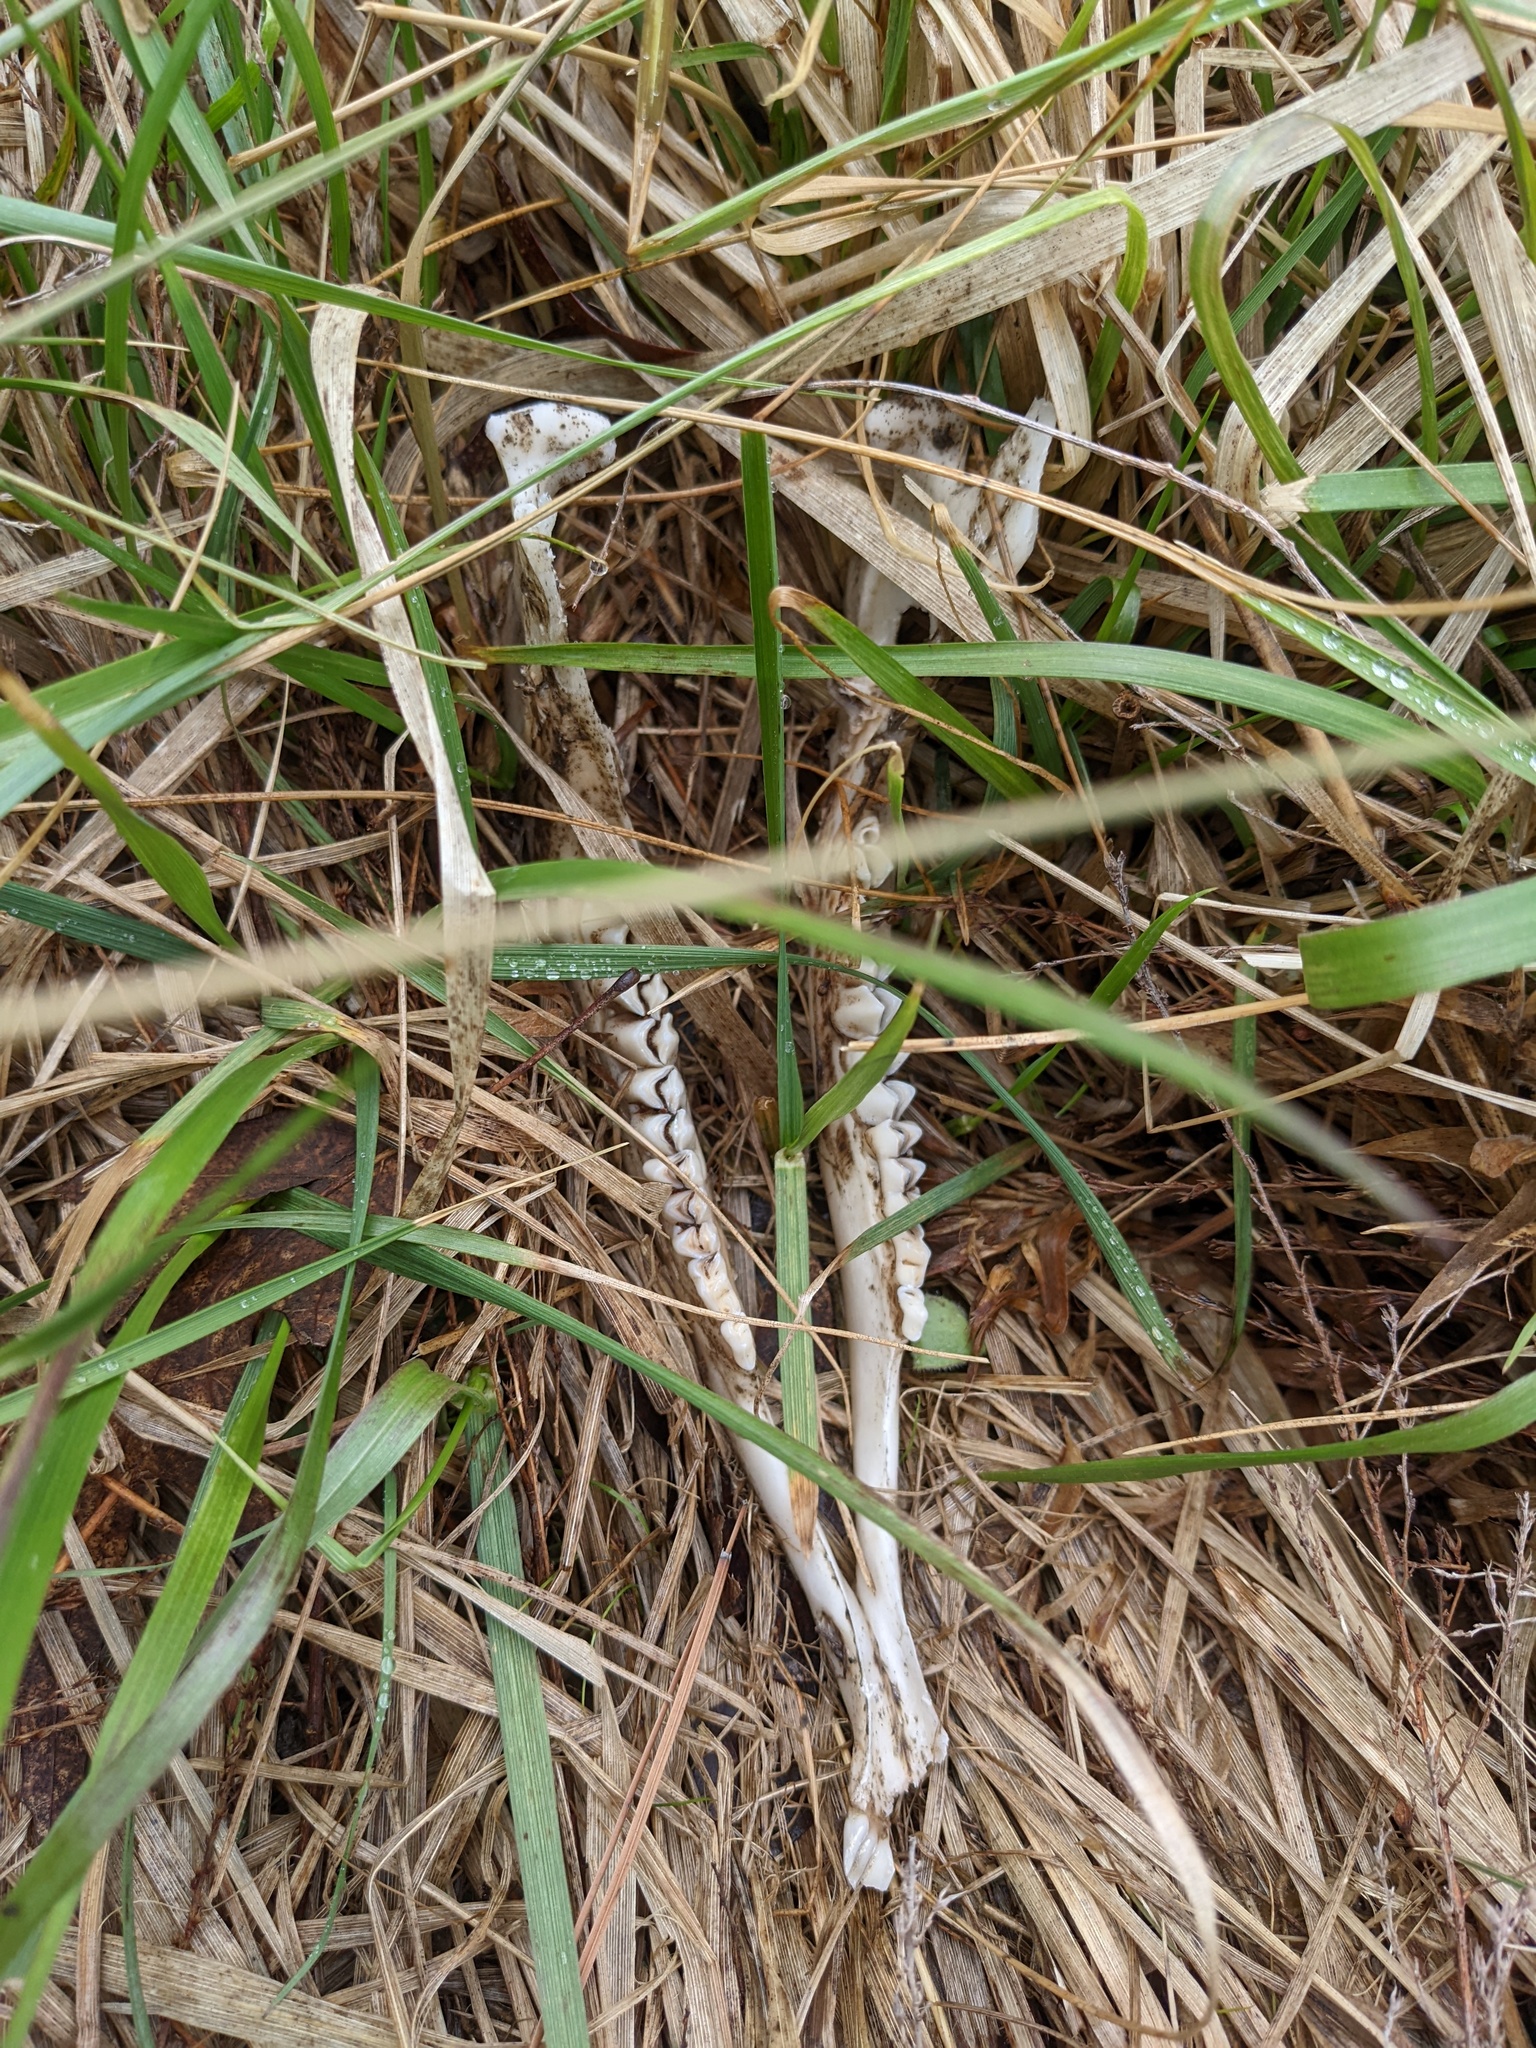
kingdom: Animalia
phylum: Chordata
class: Mammalia
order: Artiodactyla
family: Cervidae
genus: Odocoileus
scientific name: Odocoileus virginianus
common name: White-tailed deer
